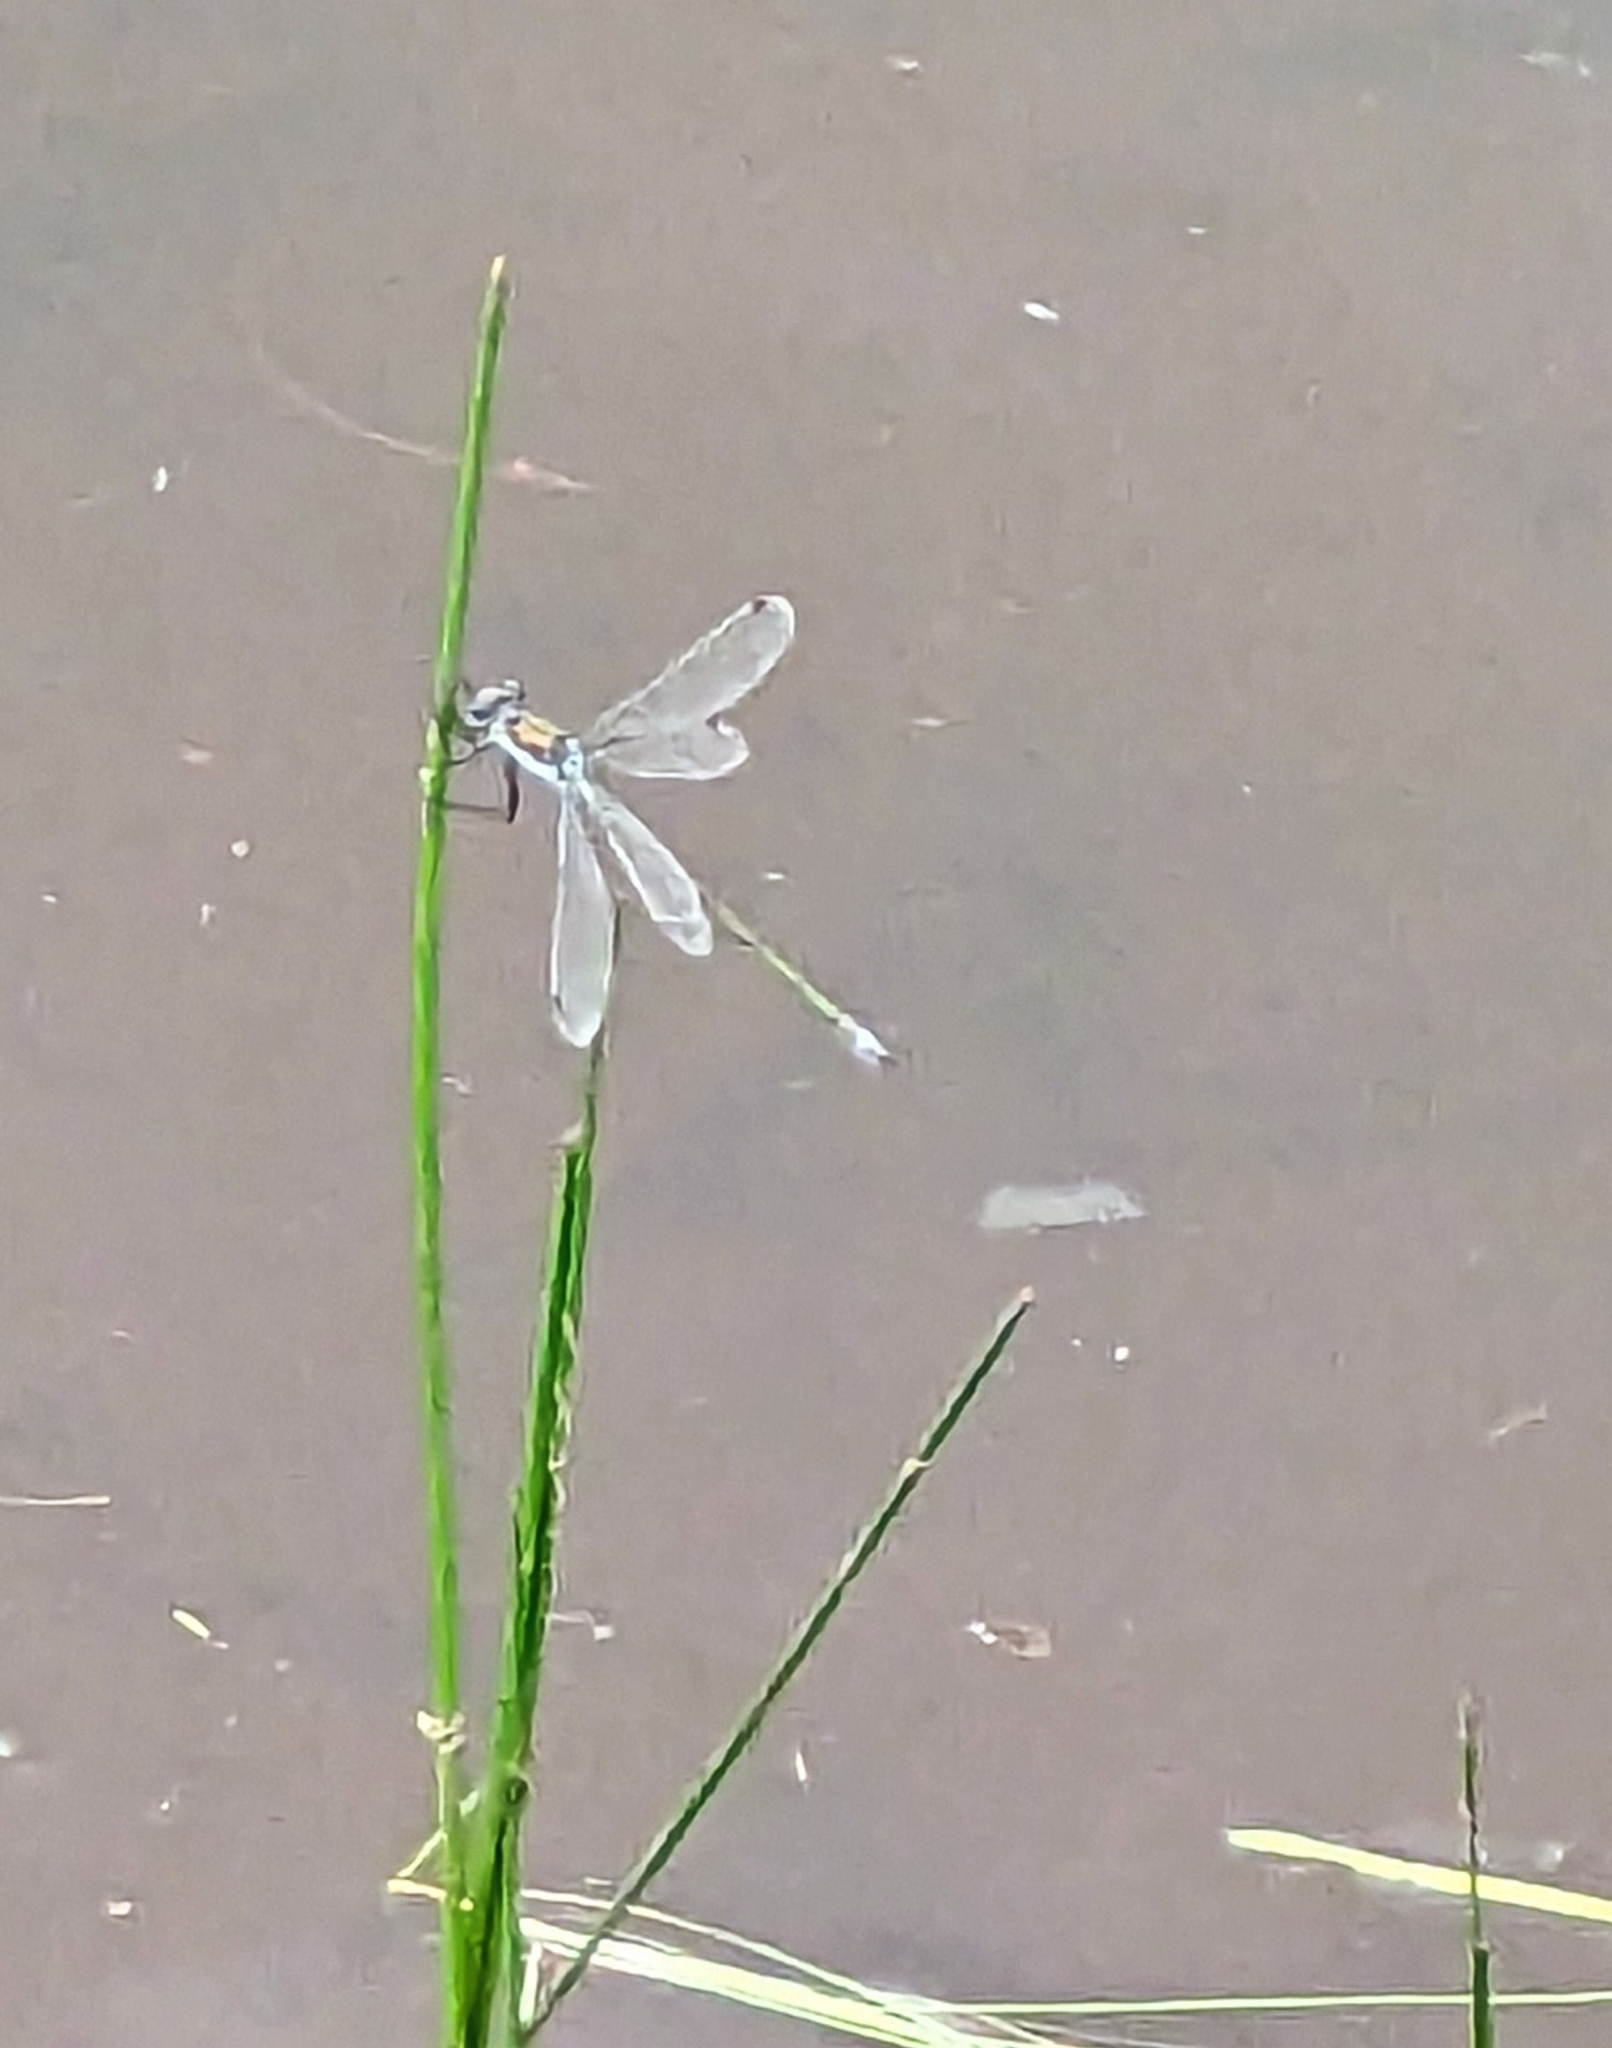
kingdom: Animalia
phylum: Arthropoda
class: Insecta
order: Odonata
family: Lestidae
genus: Lestes
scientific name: Lestes sponsa
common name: Common spreadwing
